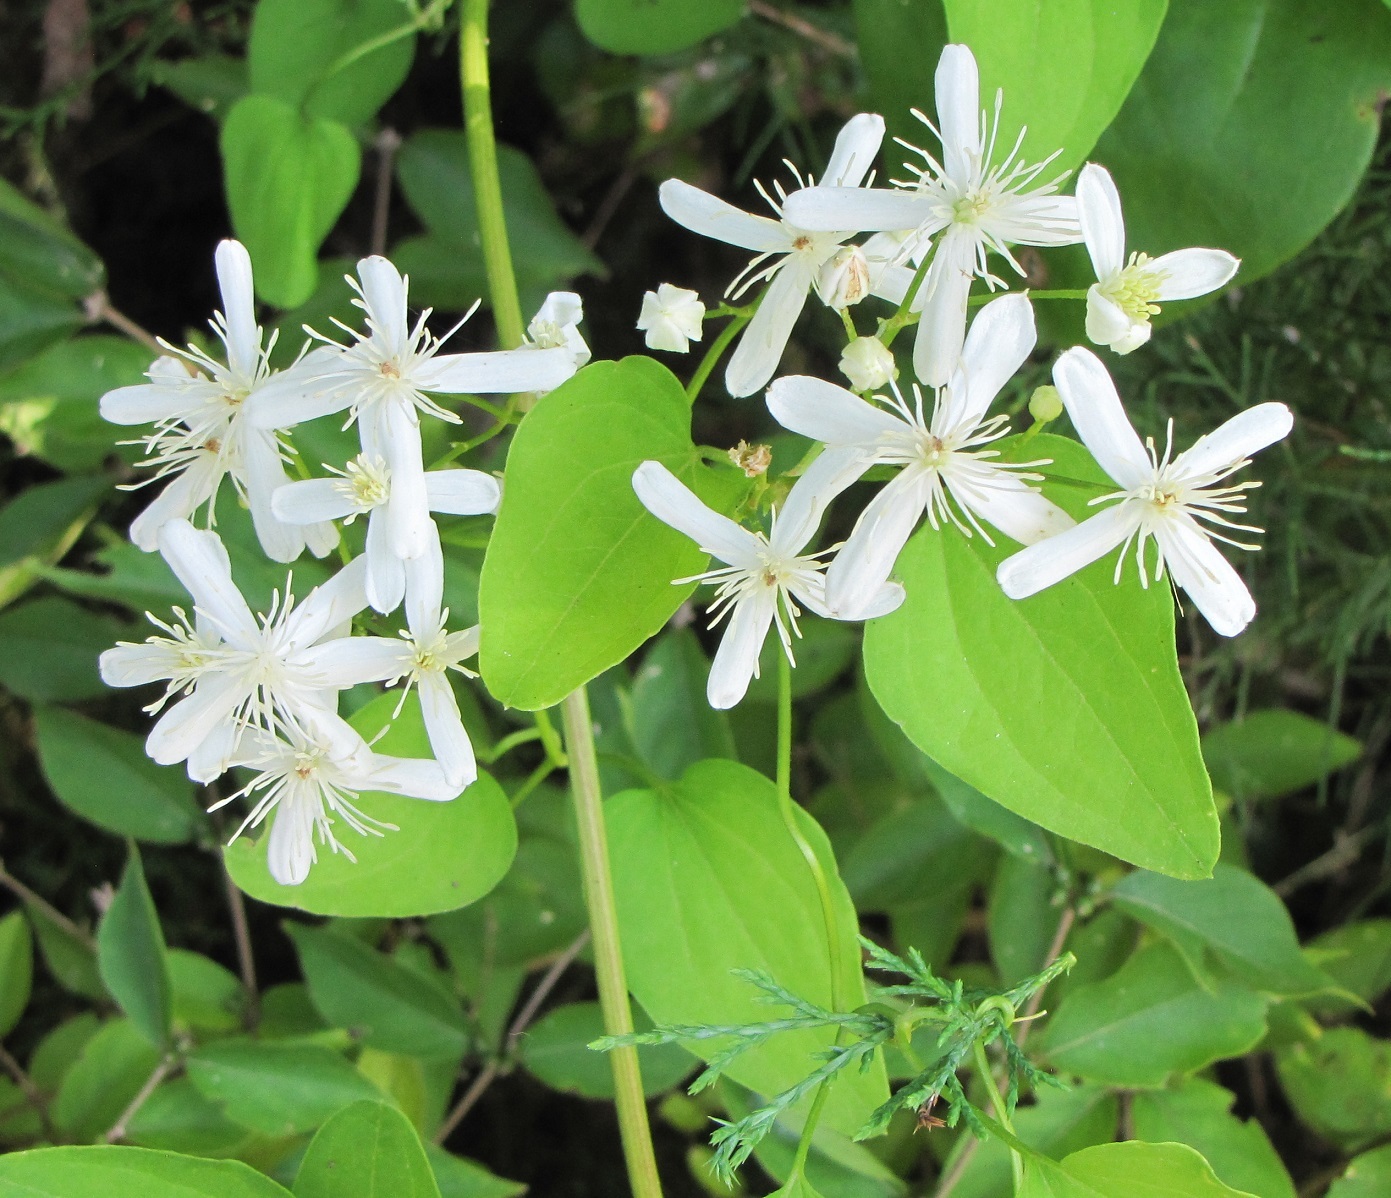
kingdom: Plantae
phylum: Tracheophyta
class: Magnoliopsida
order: Ranunculales
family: Ranunculaceae
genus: Clematis
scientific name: Clematis terniflora
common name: Sweet autumn clematis
